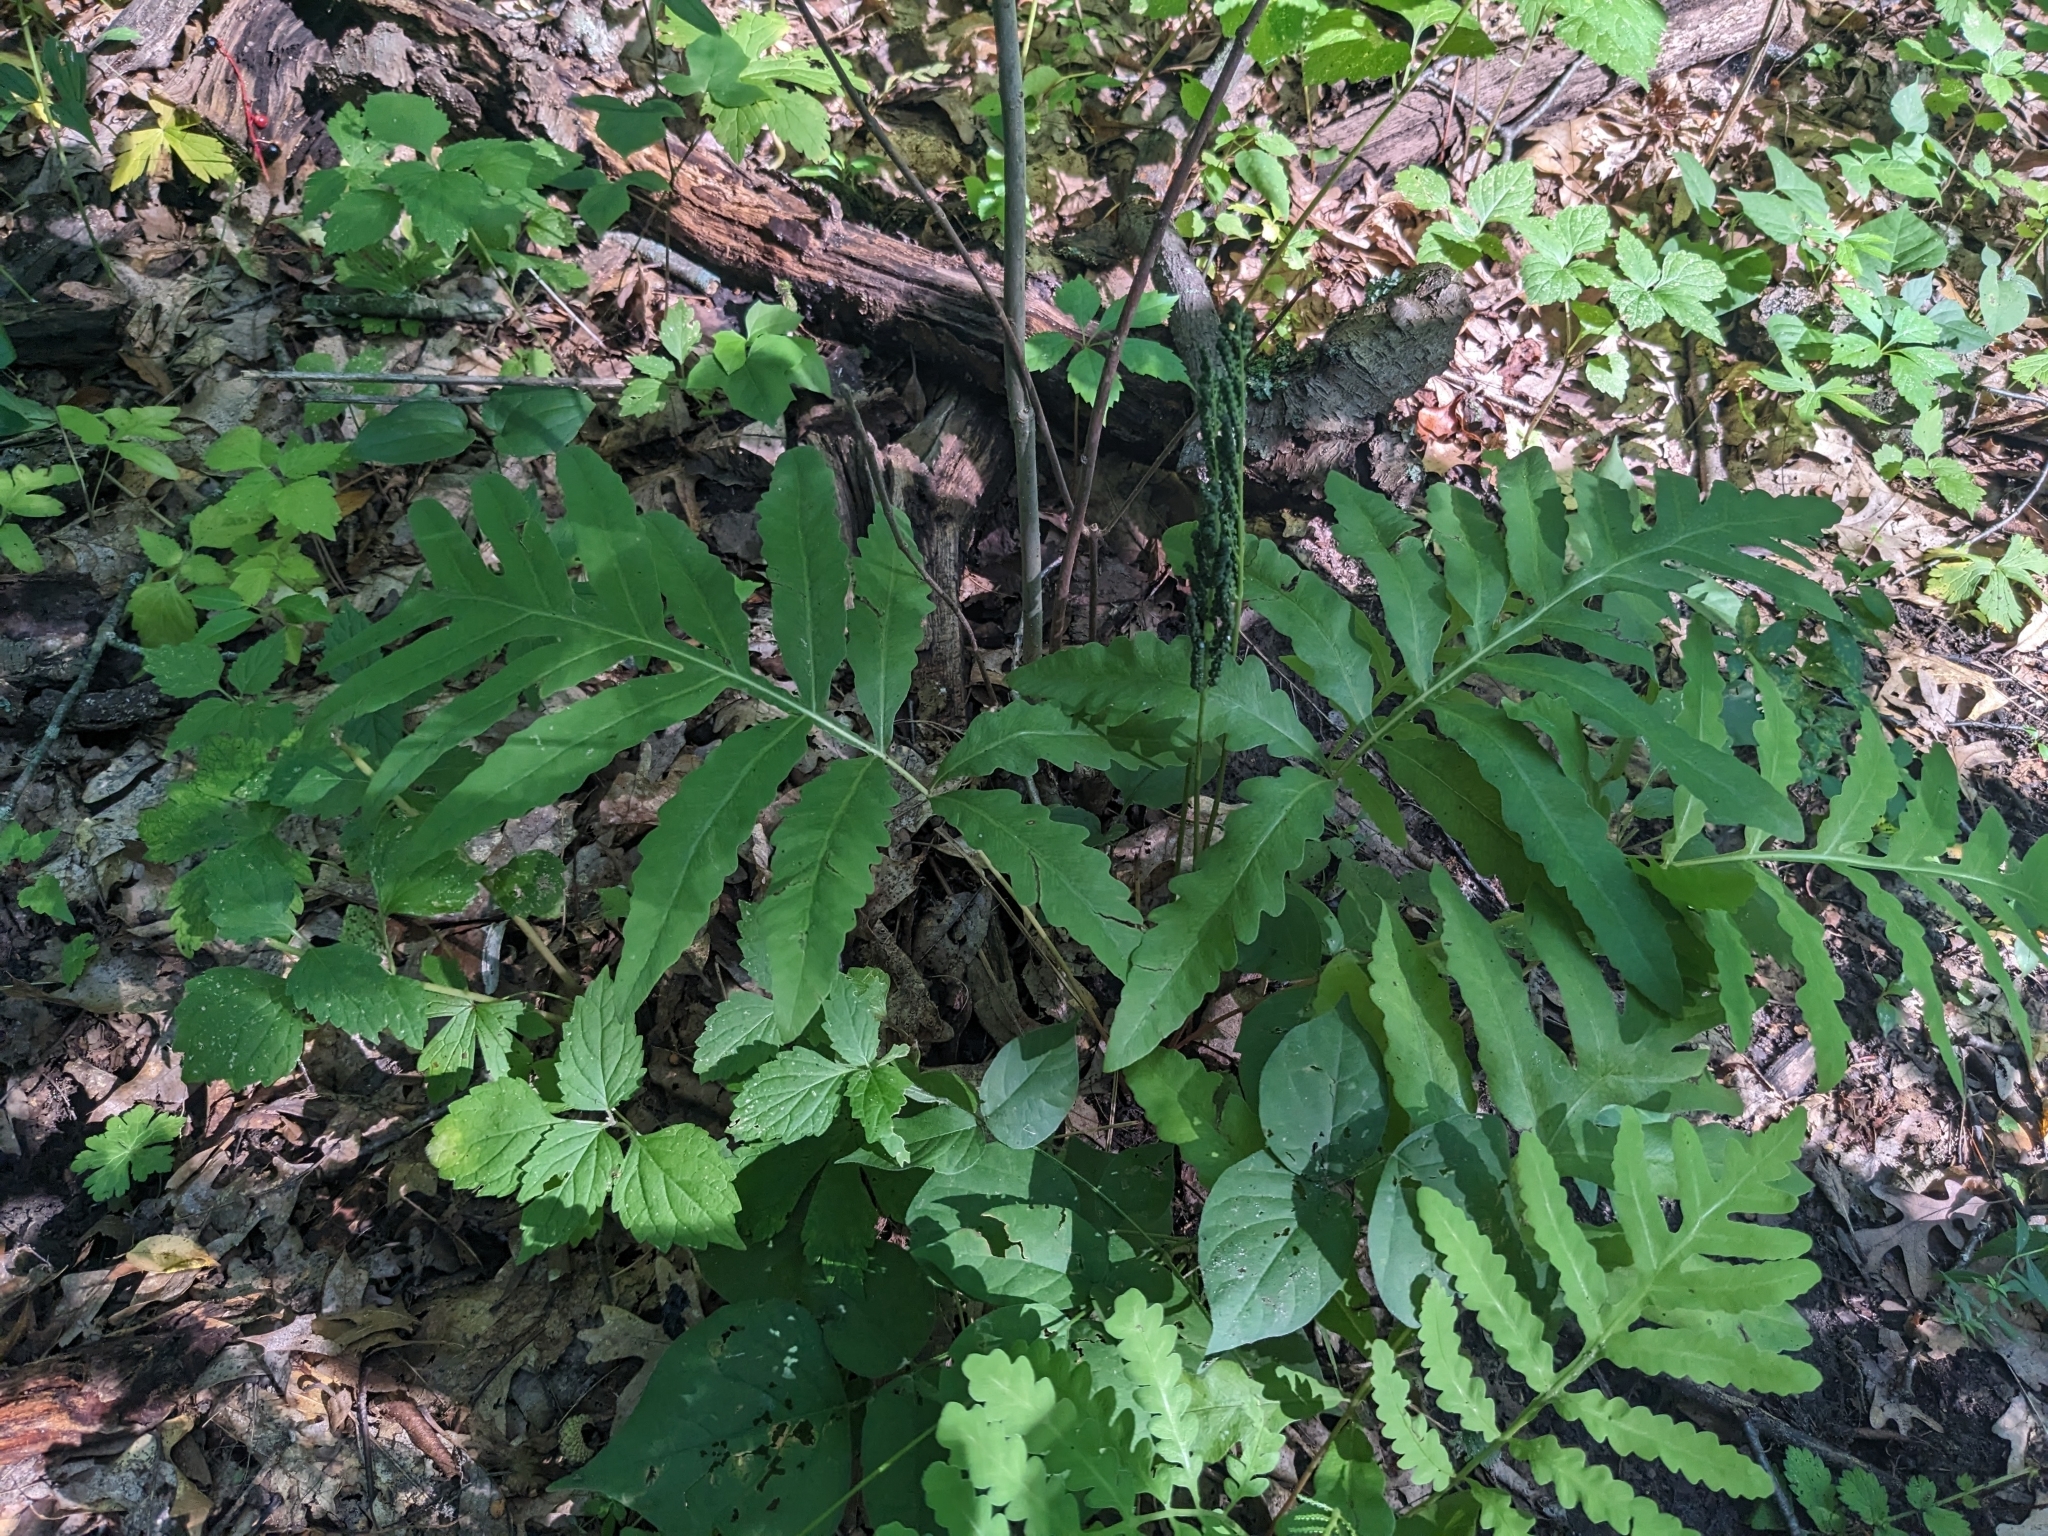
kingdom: Plantae
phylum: Tracheophyta
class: Polypodiopsida
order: Polypodiales
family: Onocleaceae
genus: Onoclea
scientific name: Onoclea sensibilis
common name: Sensitive fern
